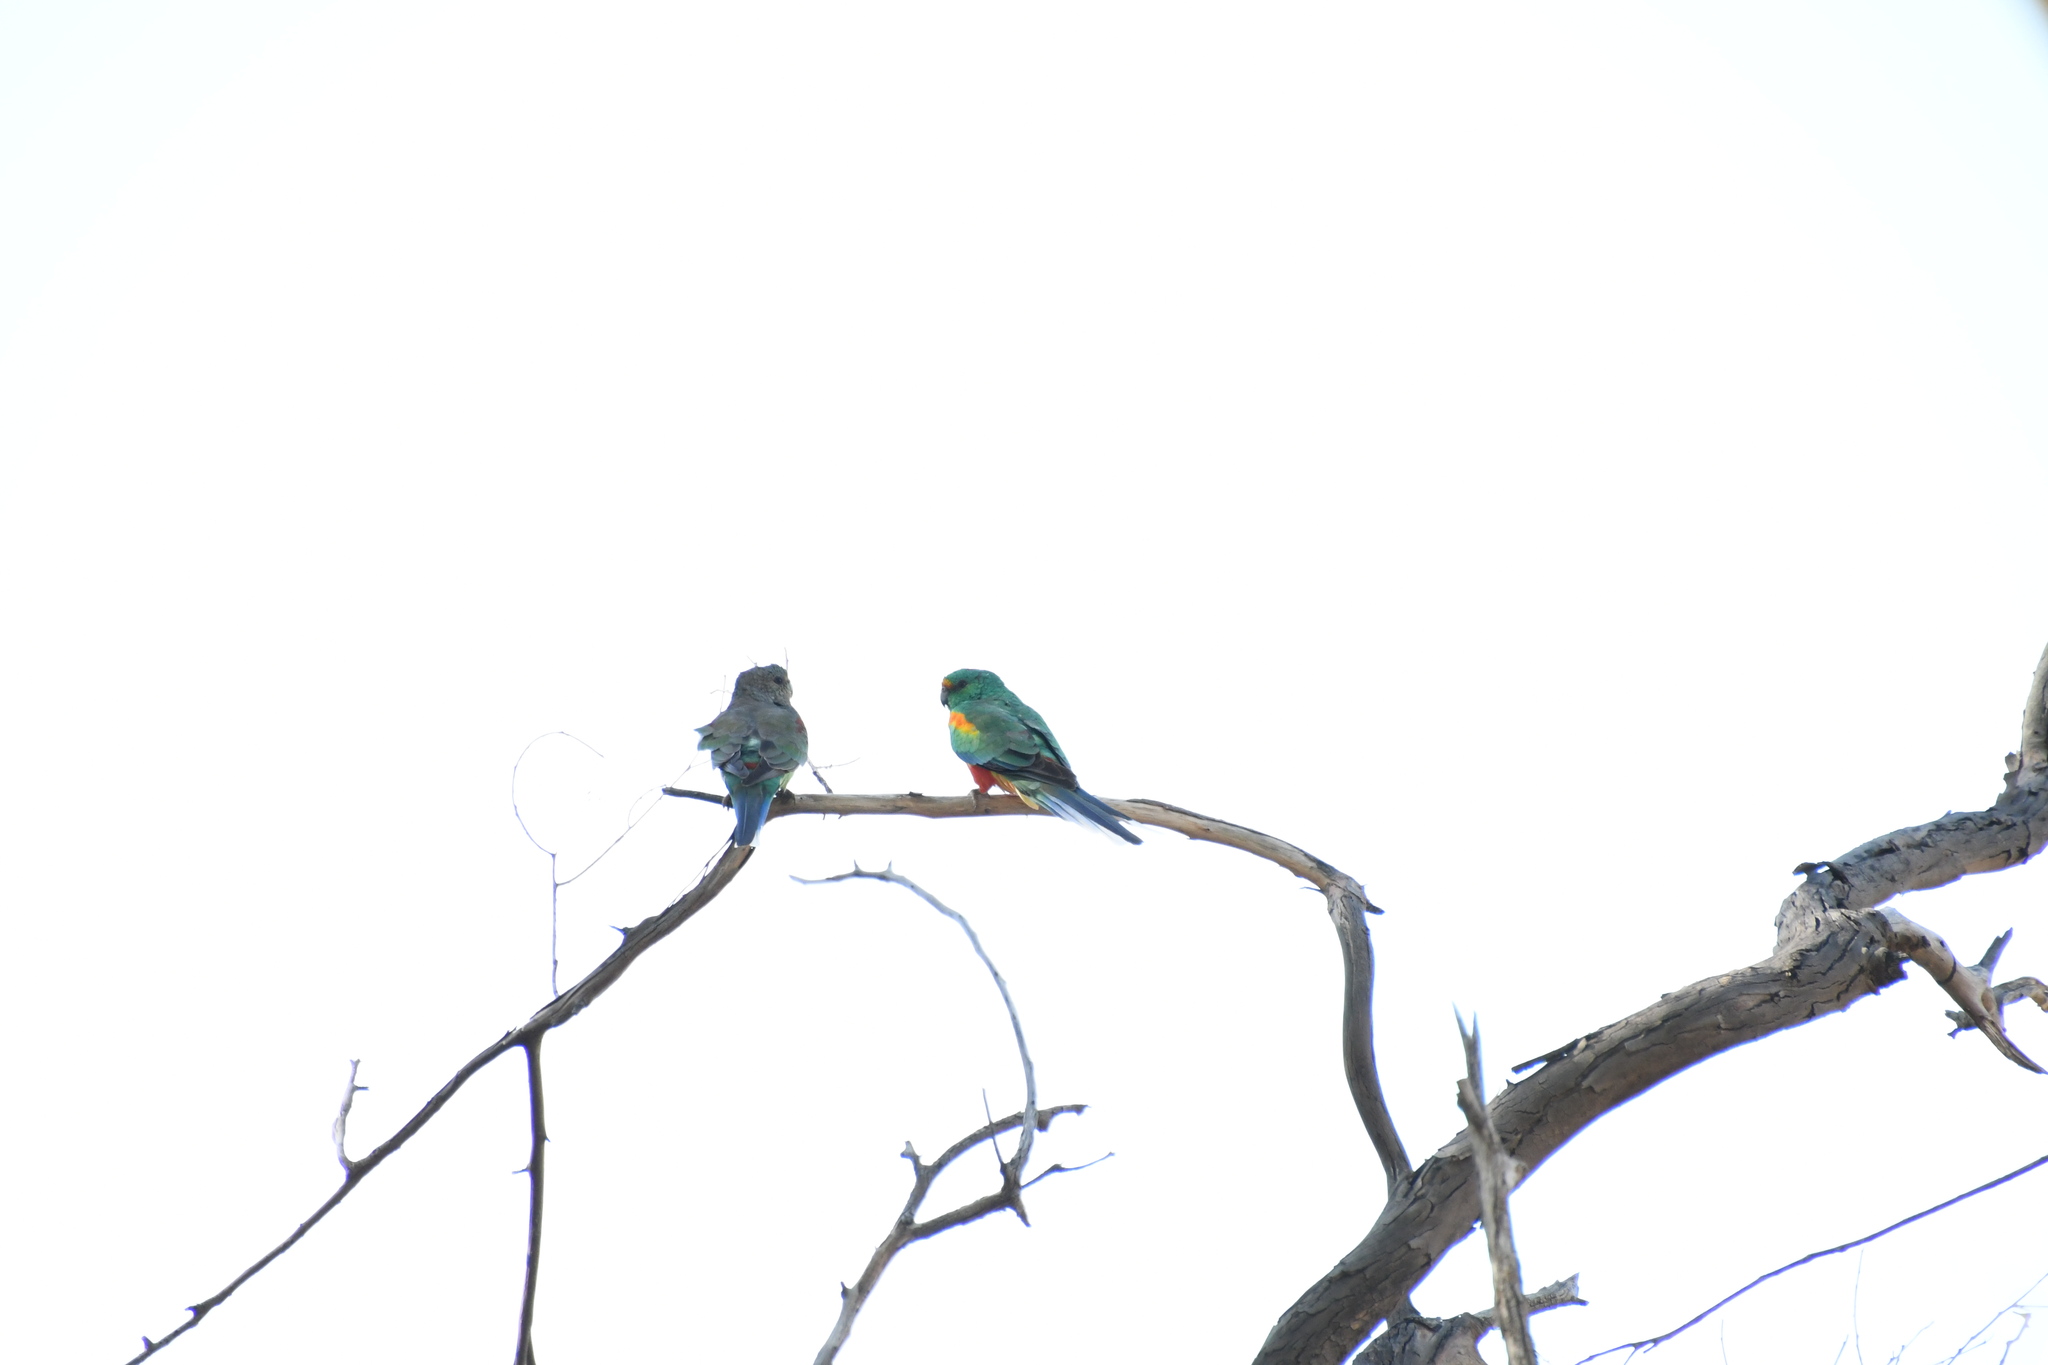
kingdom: Animalia
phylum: Chordata
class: Aves
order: Psittaciformes
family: Psittaculidae
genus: Psephotellus
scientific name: Psephotellus varius
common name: Mulga parrot
